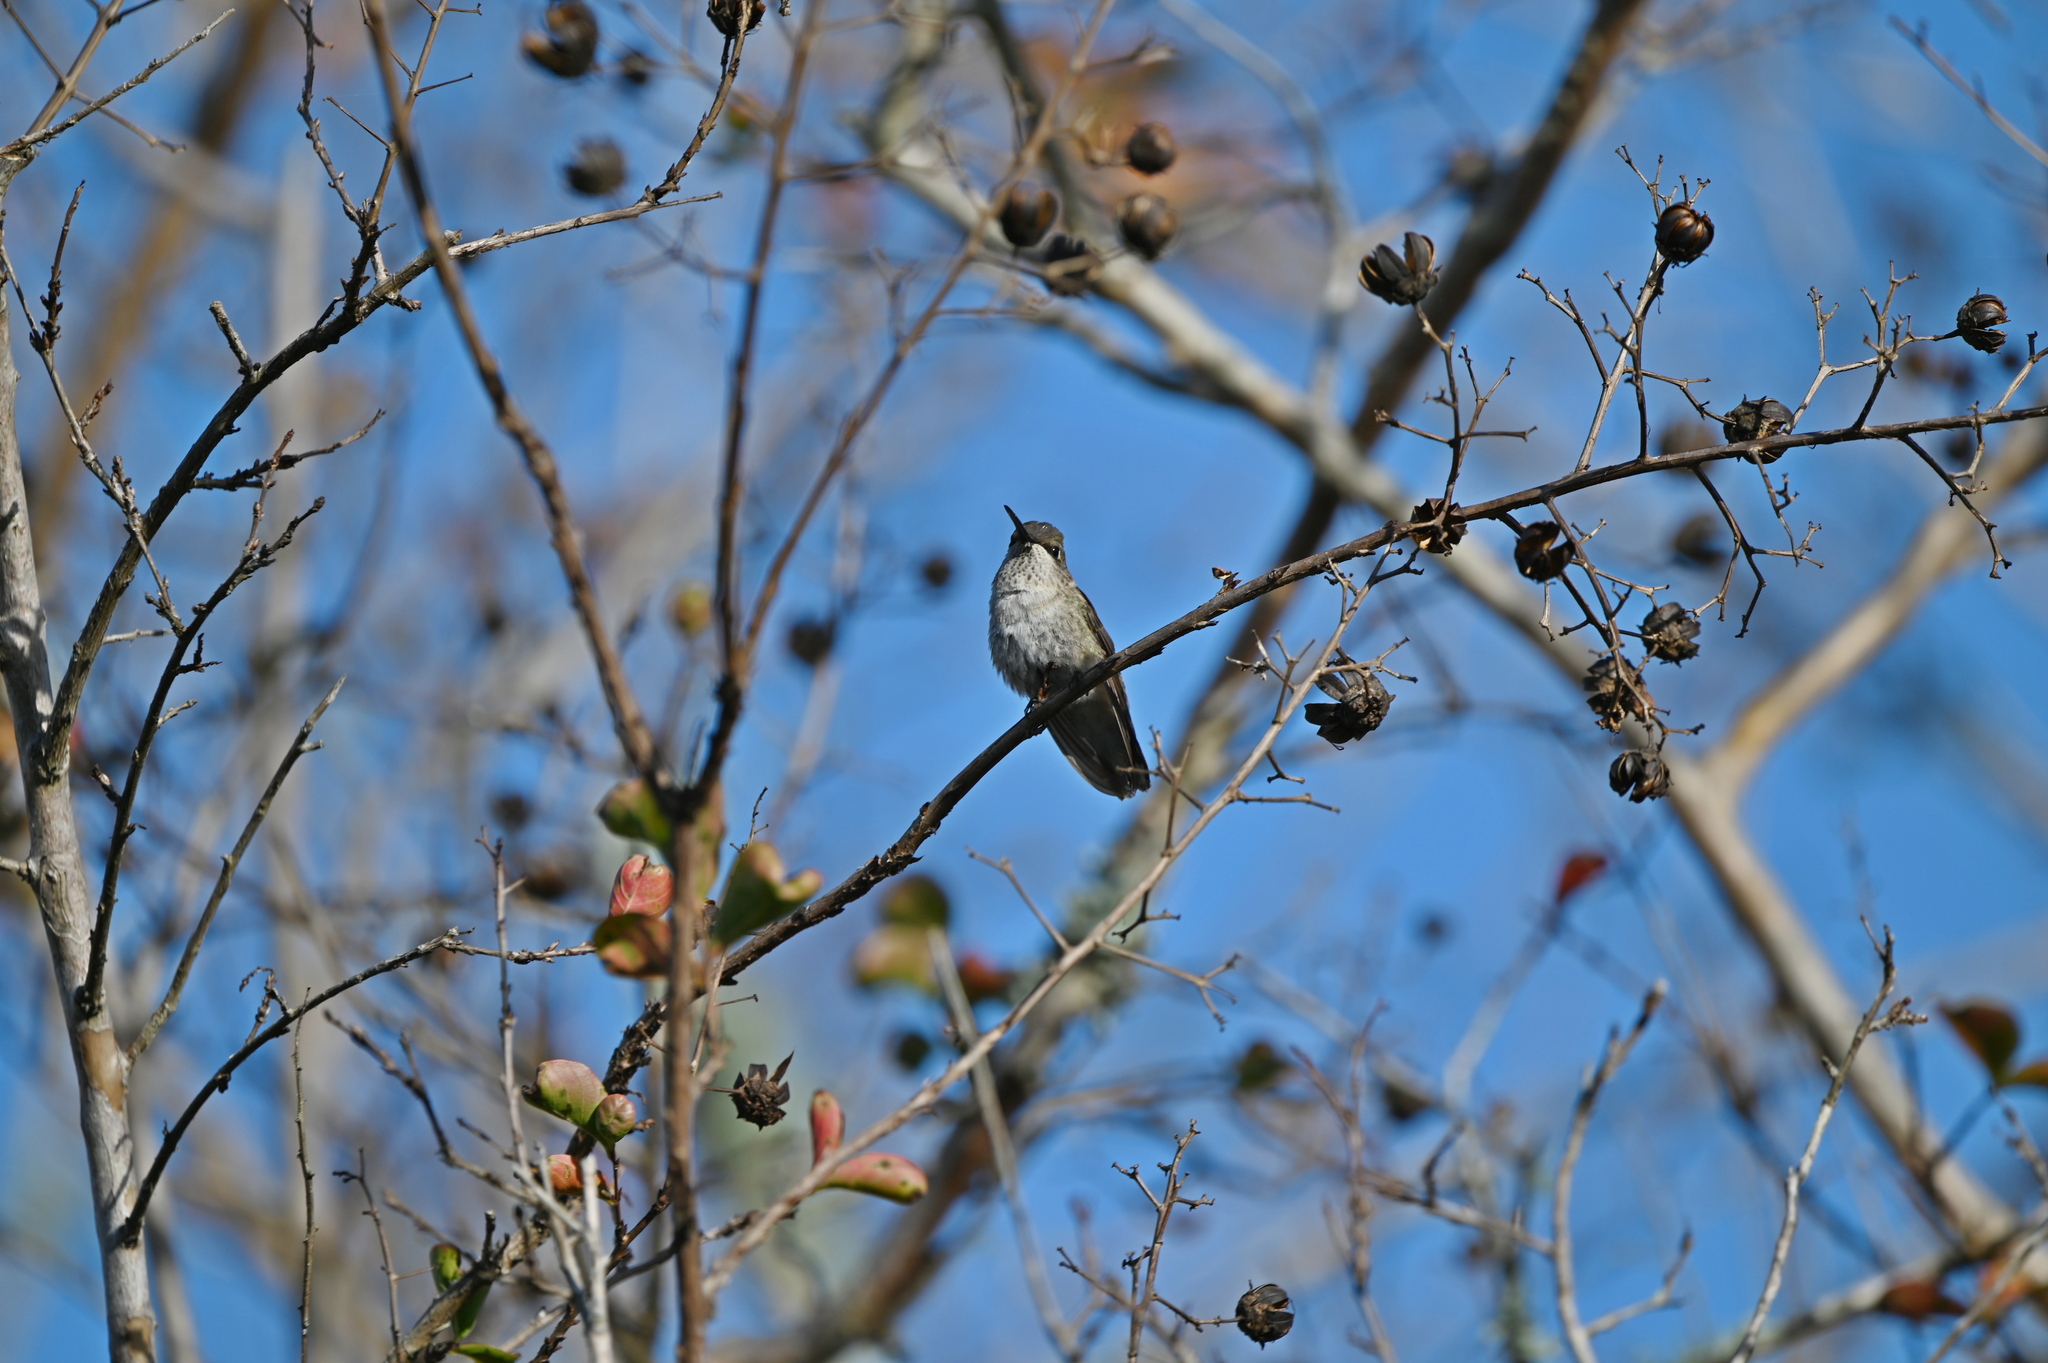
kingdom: Animalia
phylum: Chordata
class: Aves
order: Apodiformes
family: Trochilidae
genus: Archilochus
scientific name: Archilochus alexandri
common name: Black-chinned hummingbird
